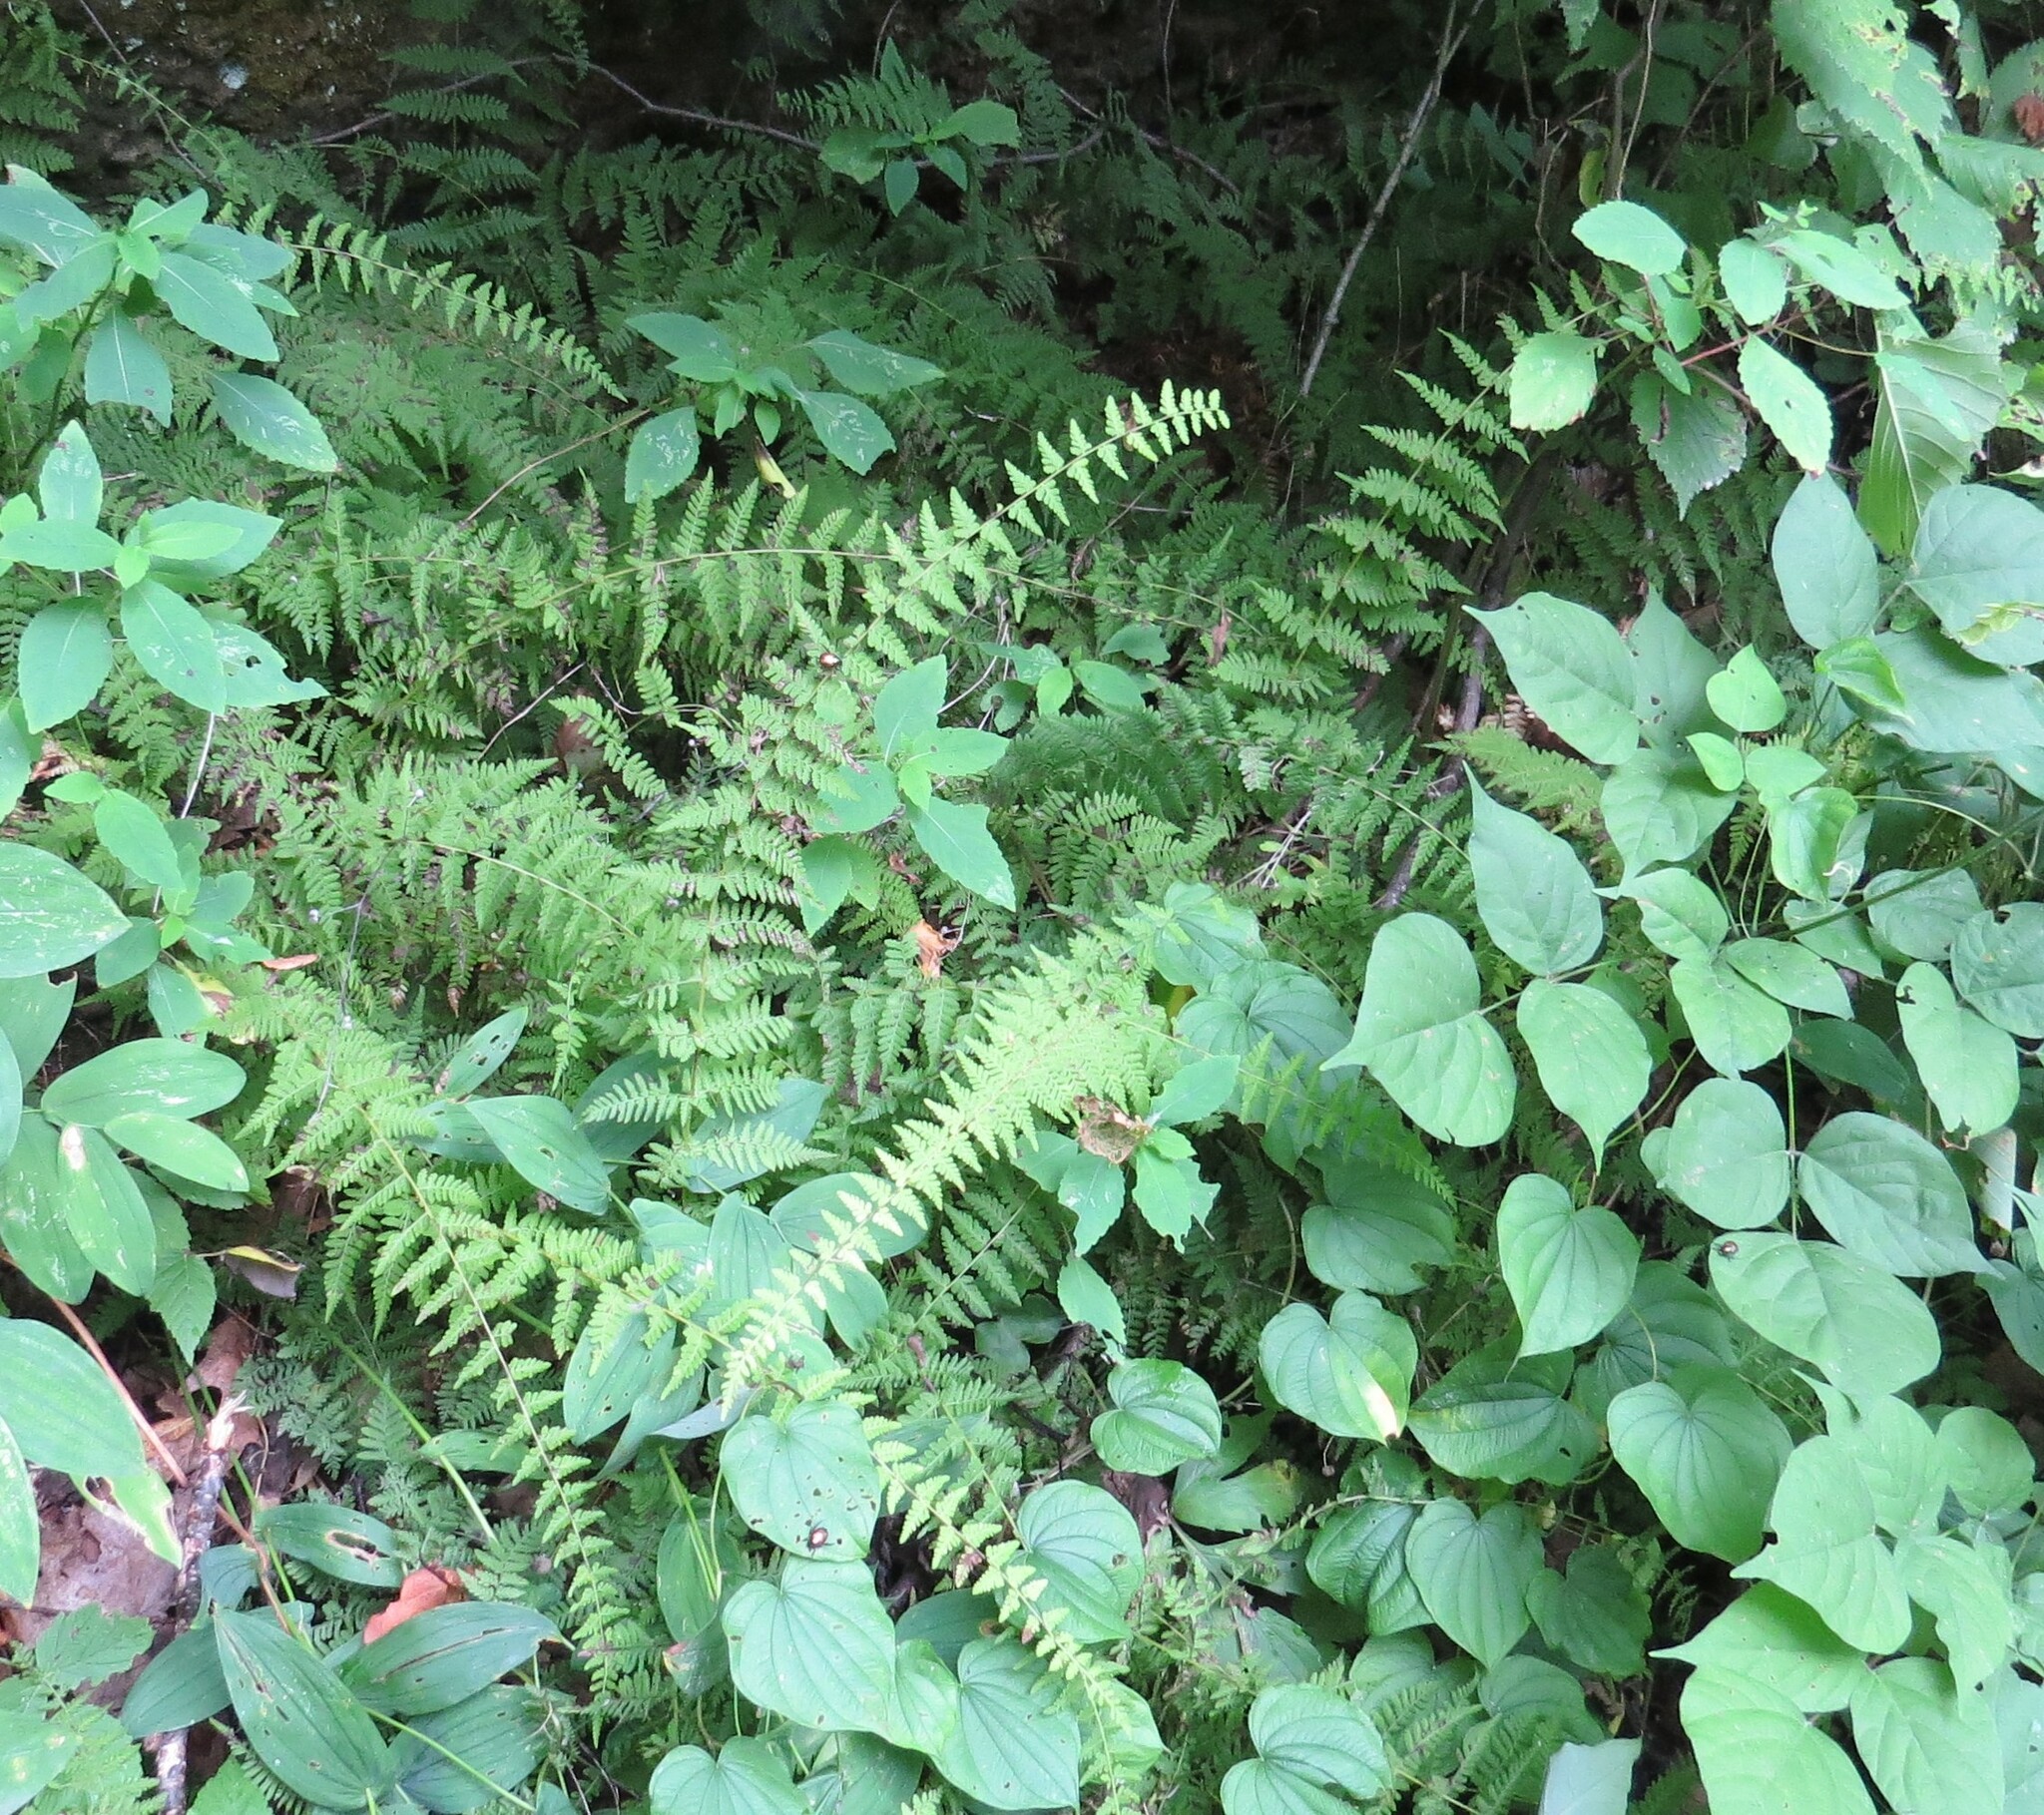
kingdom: Plantae
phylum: Tracheophyta
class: Polypodiopsida
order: Polypodiales
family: Cystopteridaceae
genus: Cystopteris
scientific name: Cystopteris bulbifera
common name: Bulblet bladder fern
